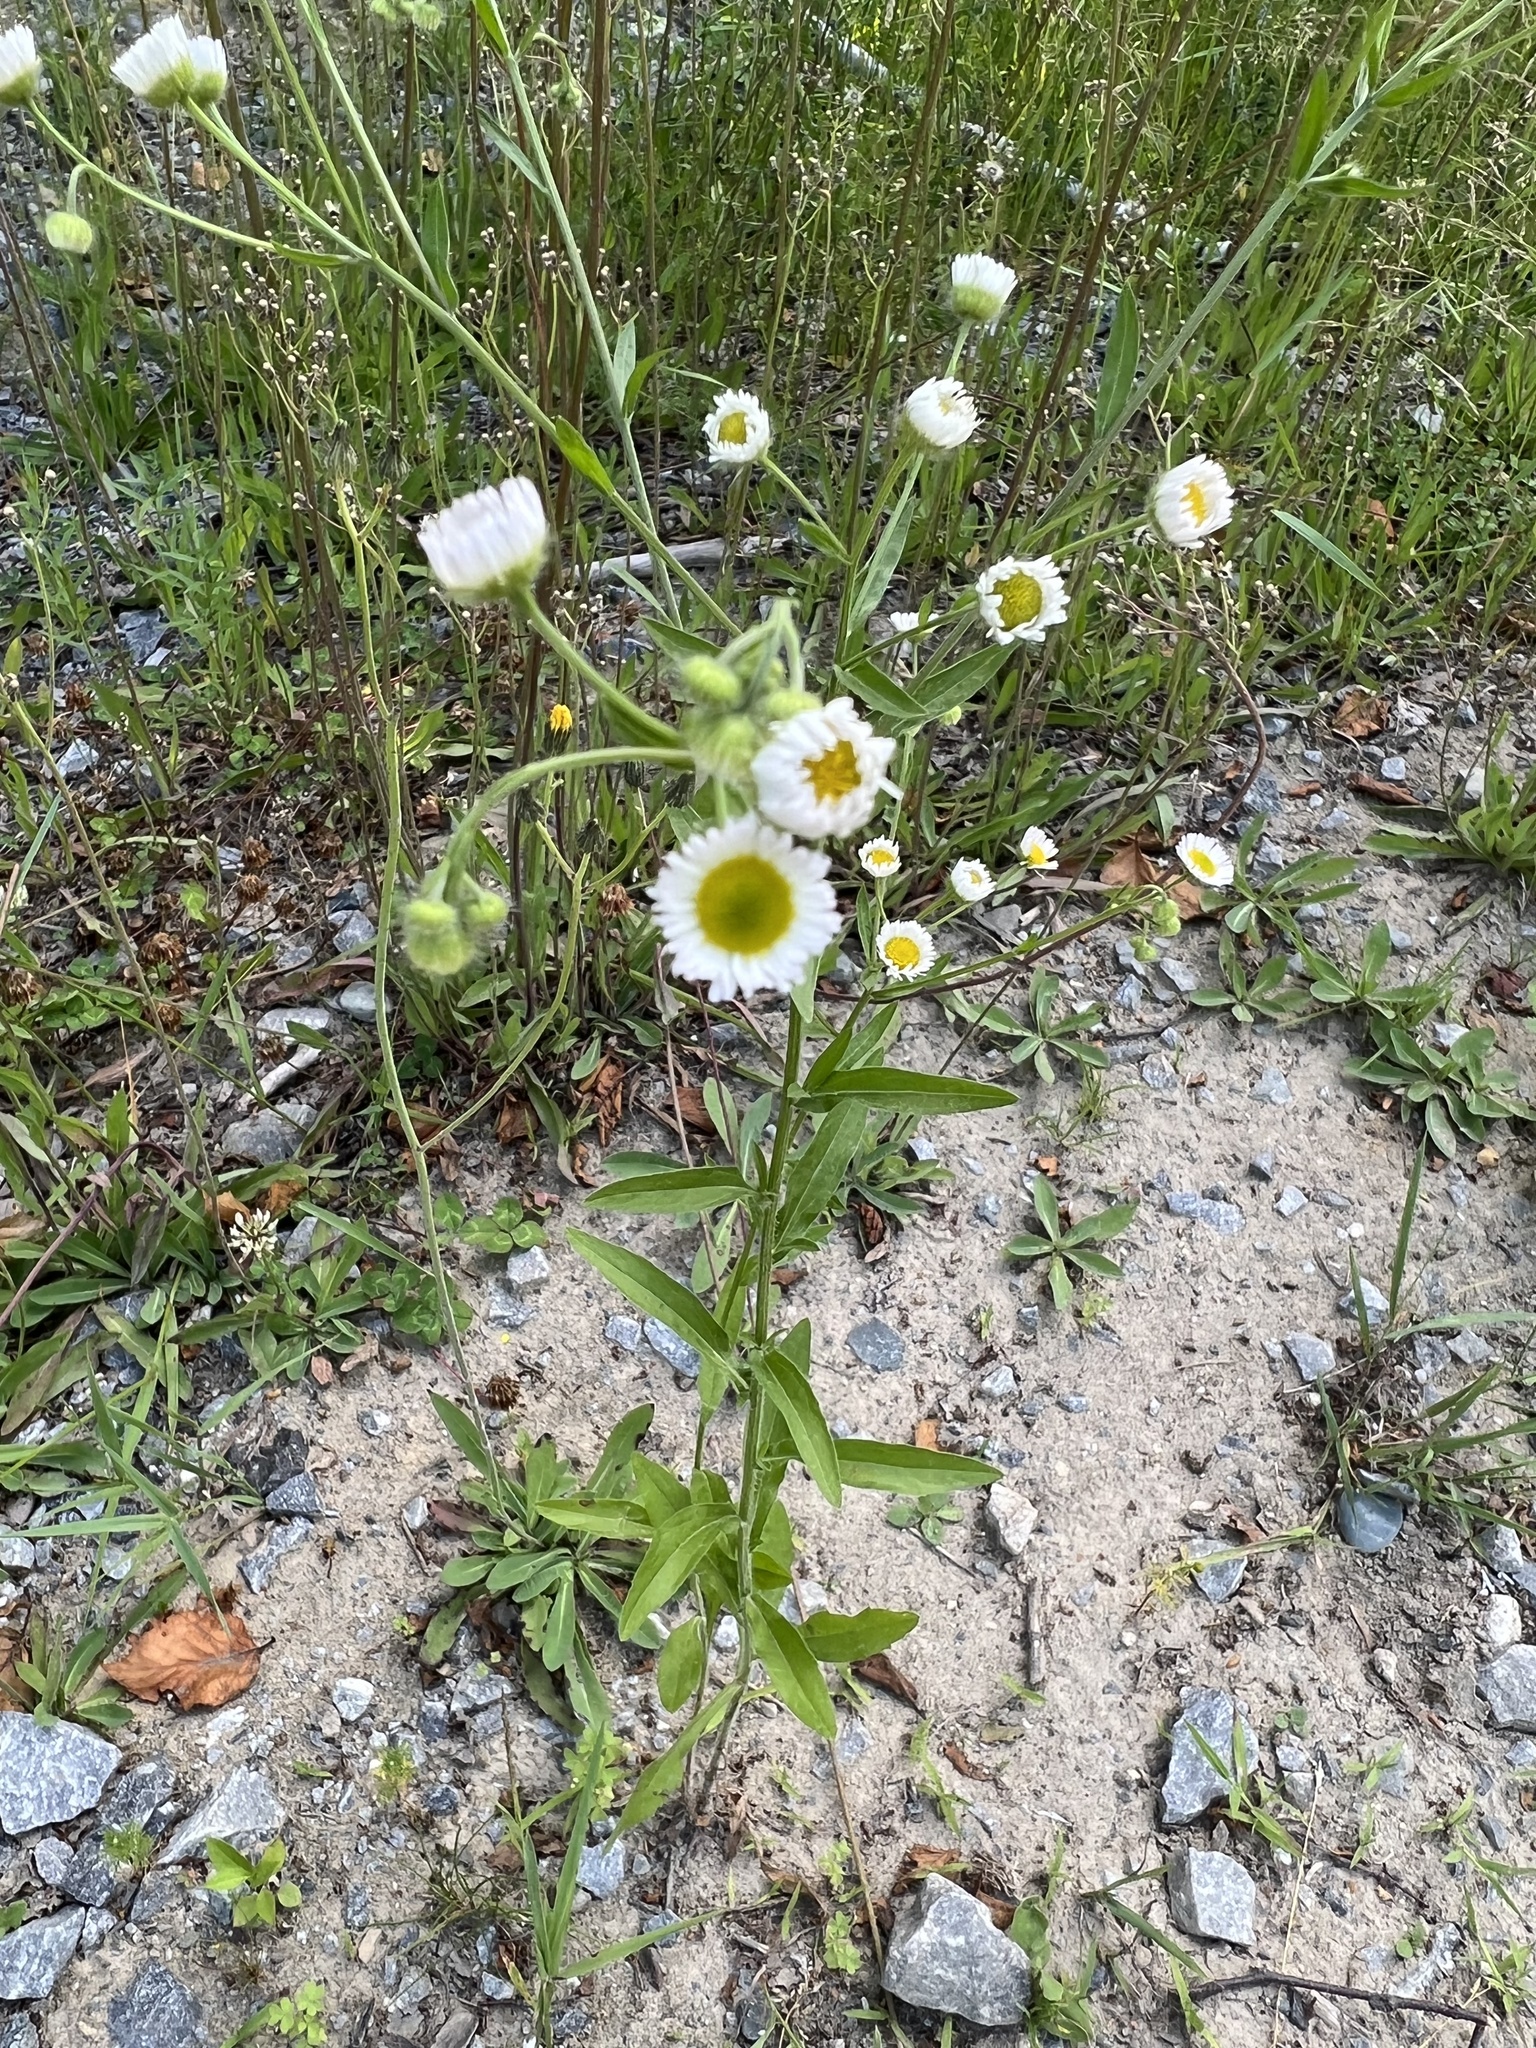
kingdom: Plantae
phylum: Tracheophyta
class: Magnoliopsida
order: Asterales
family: Asteraceae
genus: Erigeron
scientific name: Erigeron strigosus
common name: Common eastern fleabane
